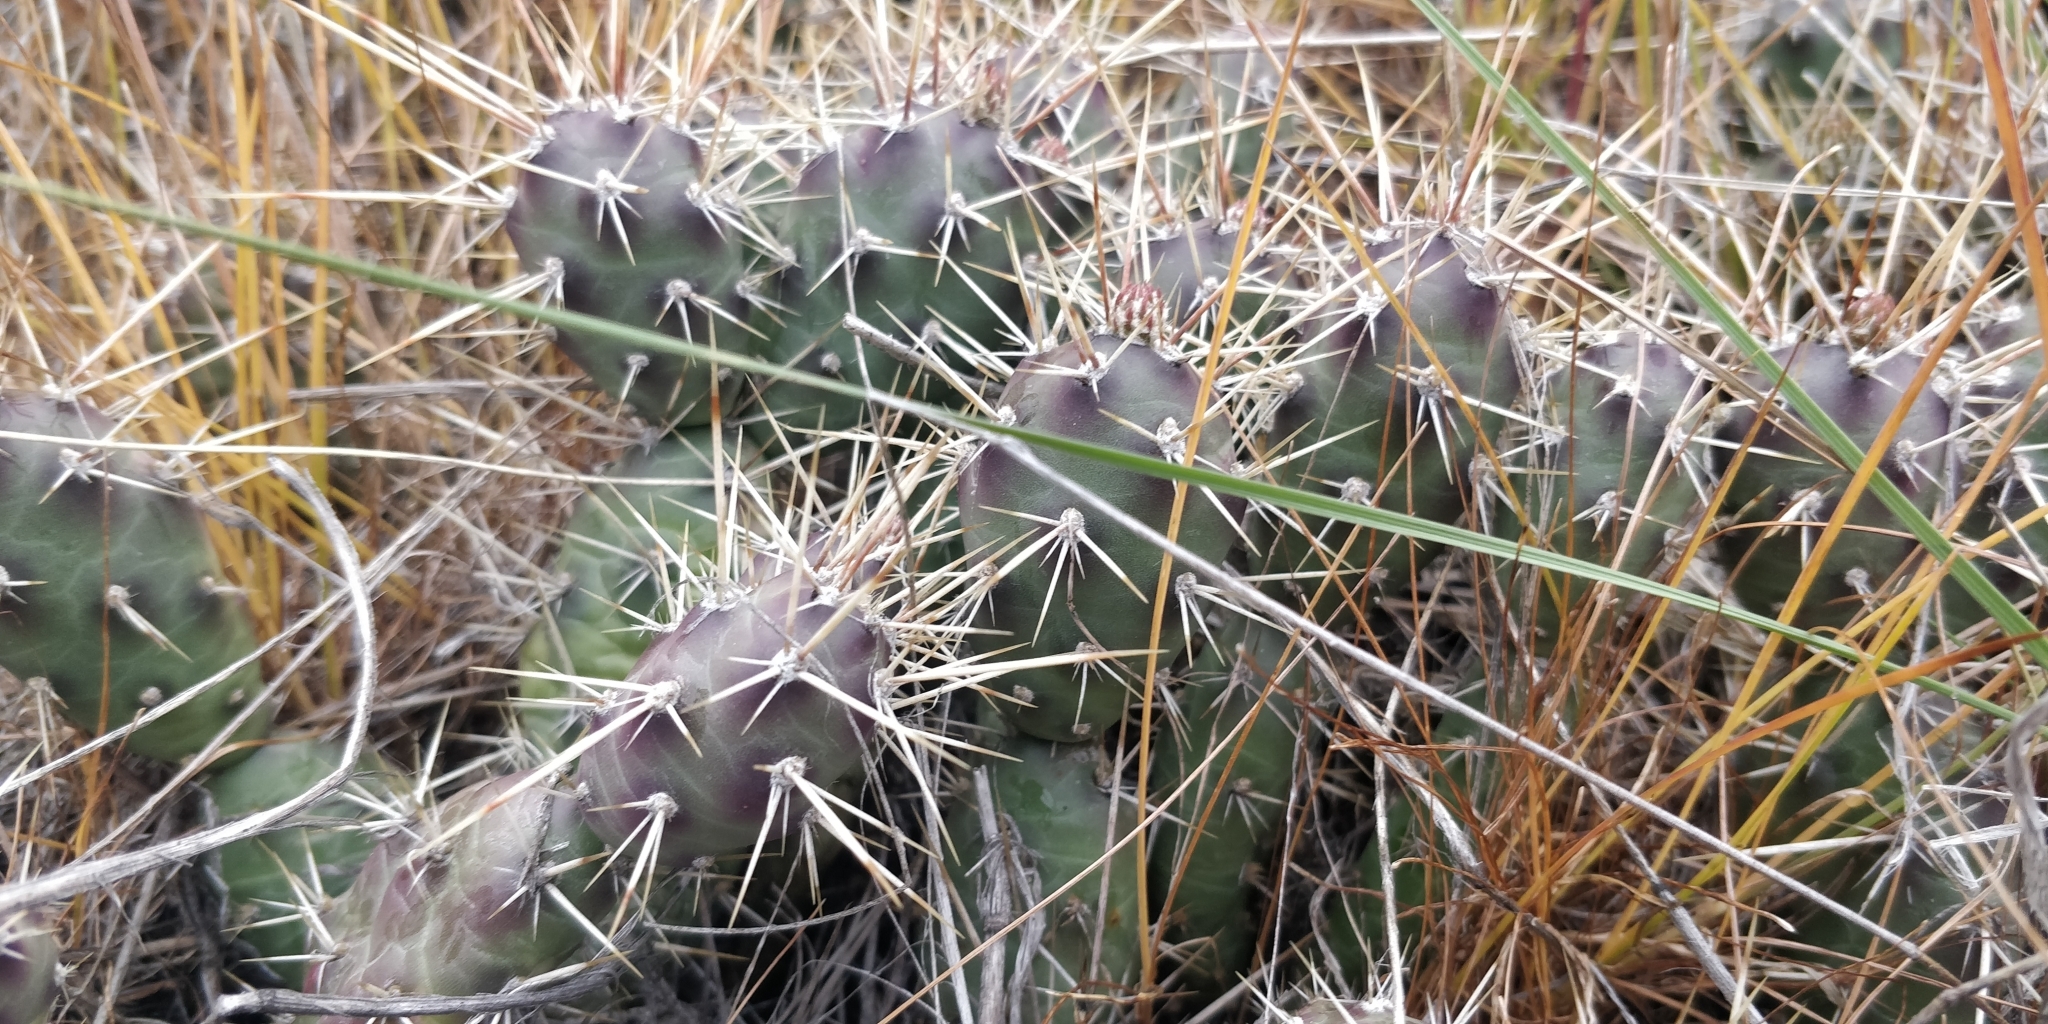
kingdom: Plantae
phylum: Tracheophyta
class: Magnoliopsida
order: Caryophyllales
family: Cactaceae
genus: Opuntia
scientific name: Opuntia fragilis
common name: Brittle cactus
